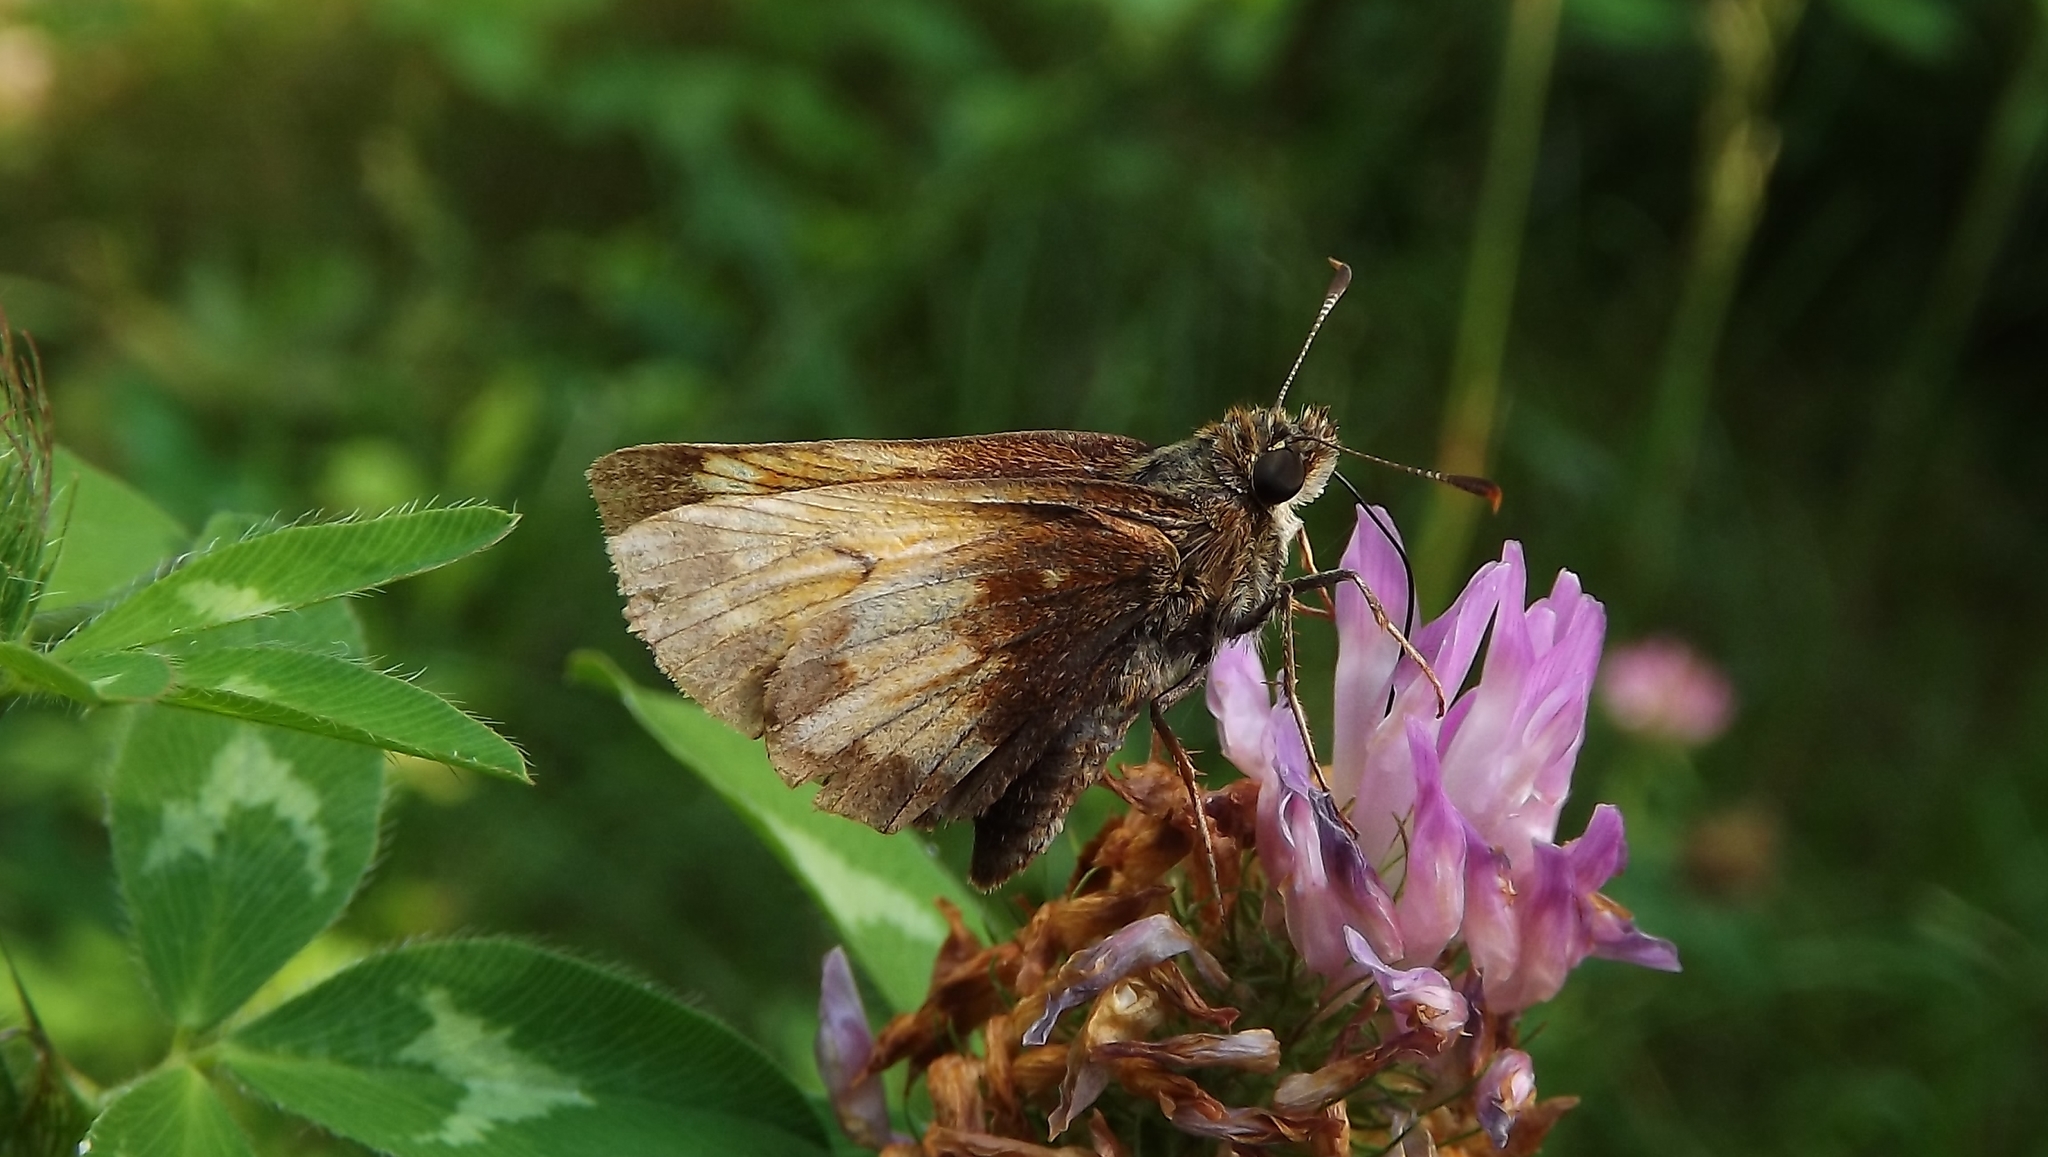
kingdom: Animalia
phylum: Arthropoda
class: Insecta
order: Lepidoptera
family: Hesperiidae
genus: Lon
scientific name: Lon hobomok
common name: Hobomok skipper
